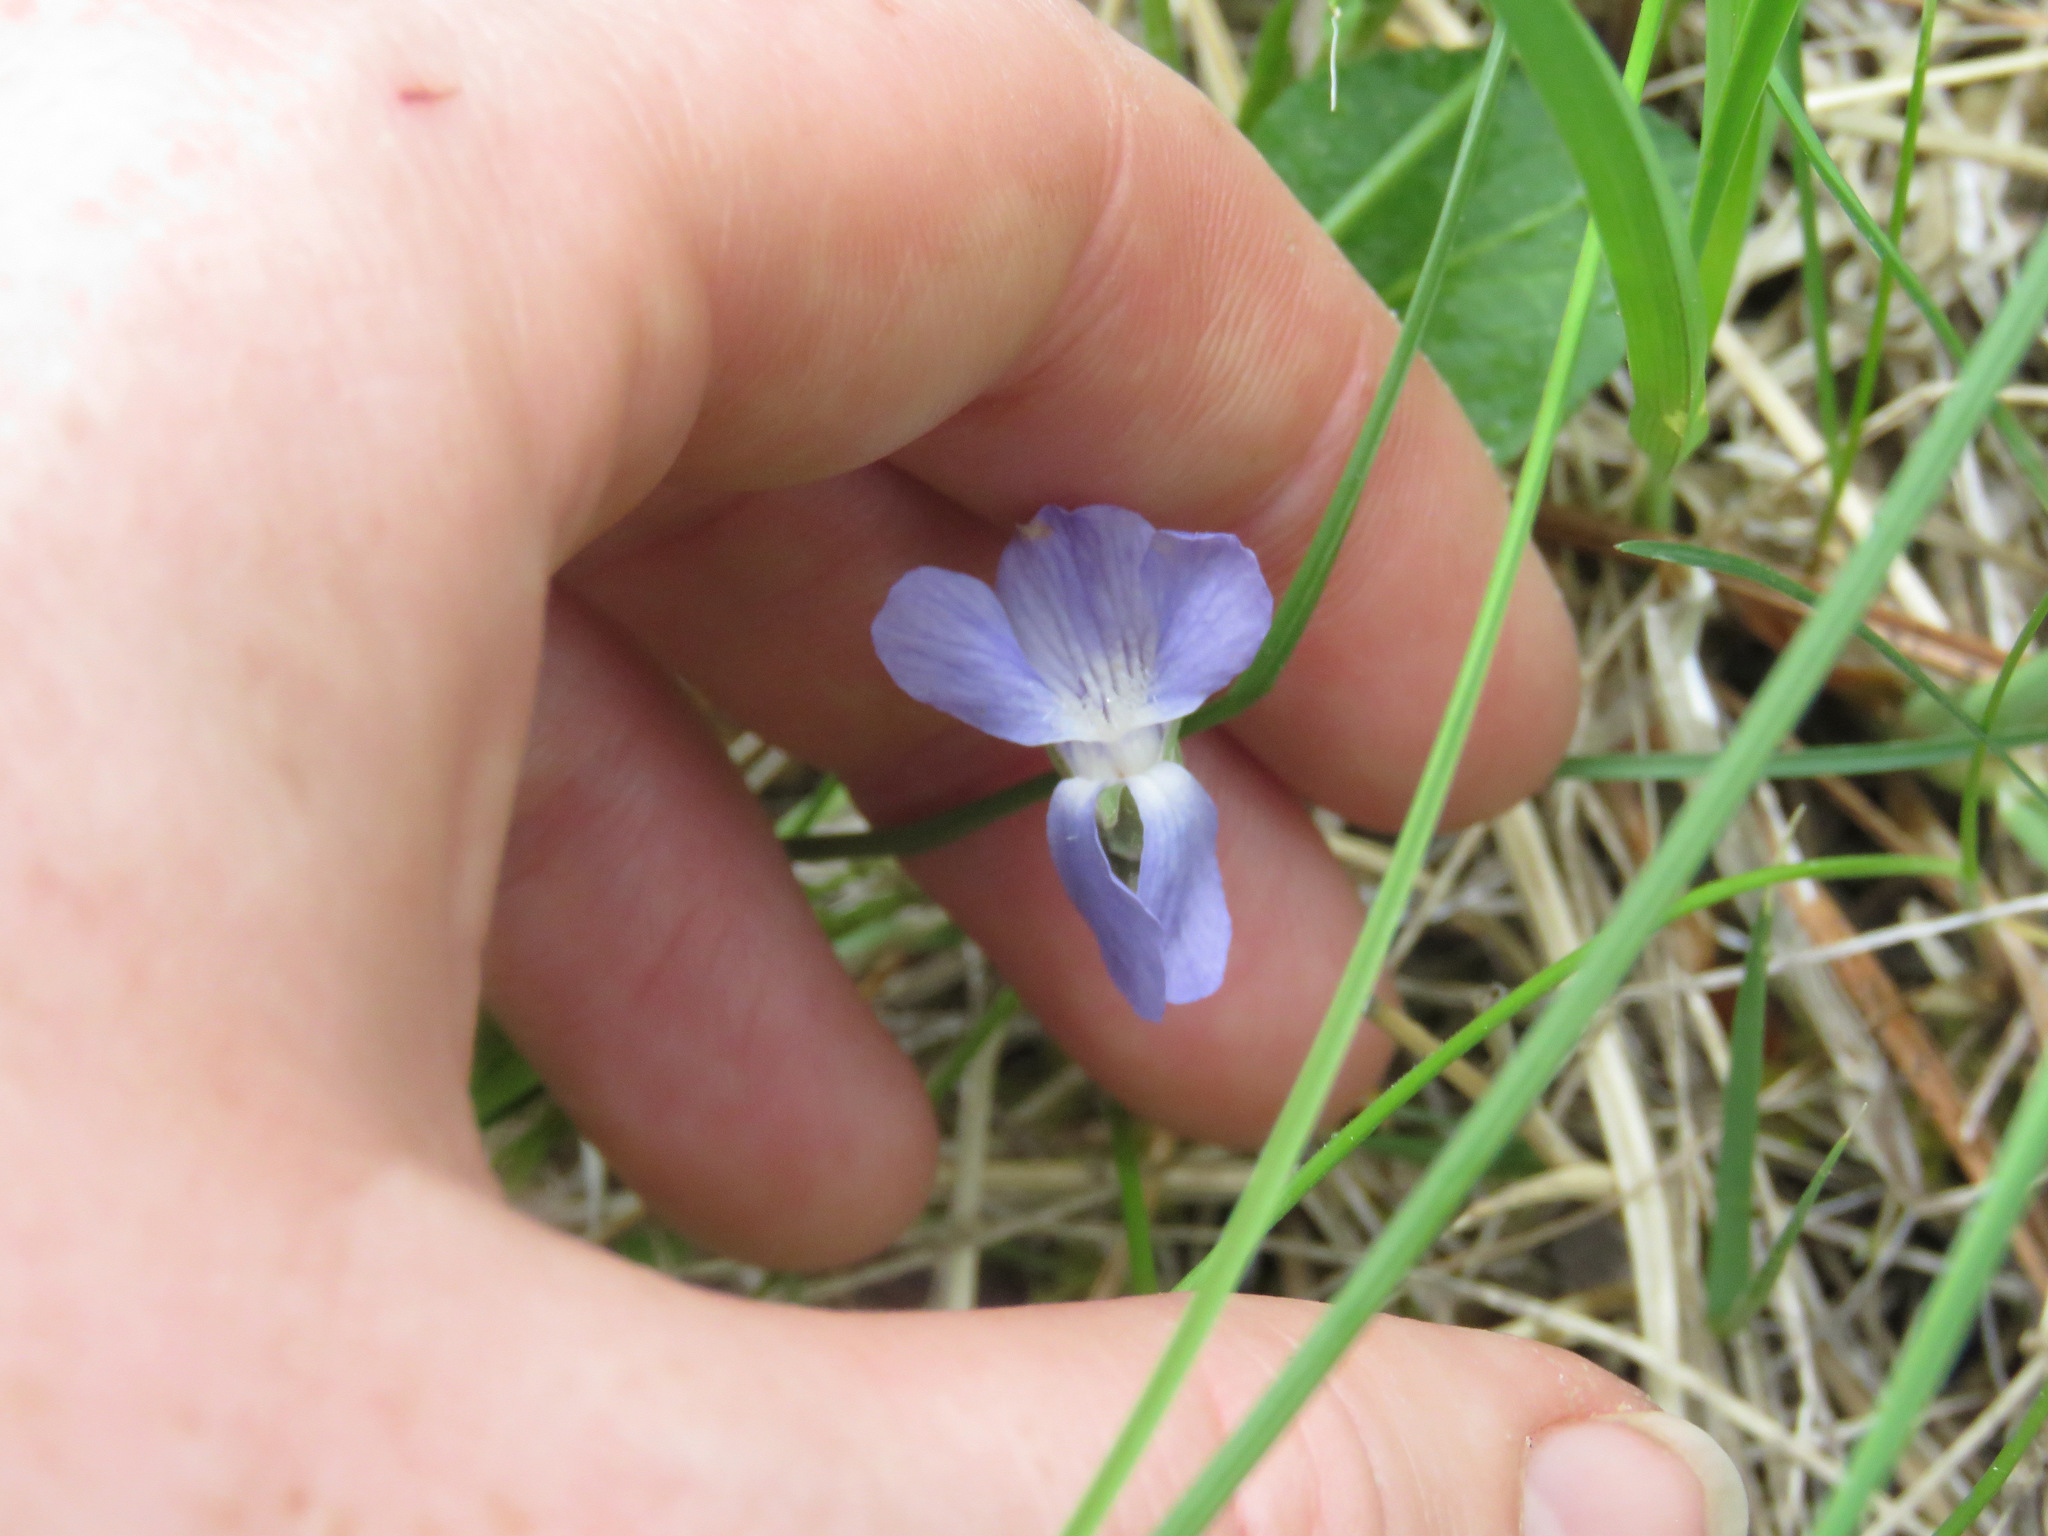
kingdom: Plantae
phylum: Tracheophyta
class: Magnoliopsida
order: Malpighiales
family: Violaceae
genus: Viola
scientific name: Viola adunca
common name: Sand violet
